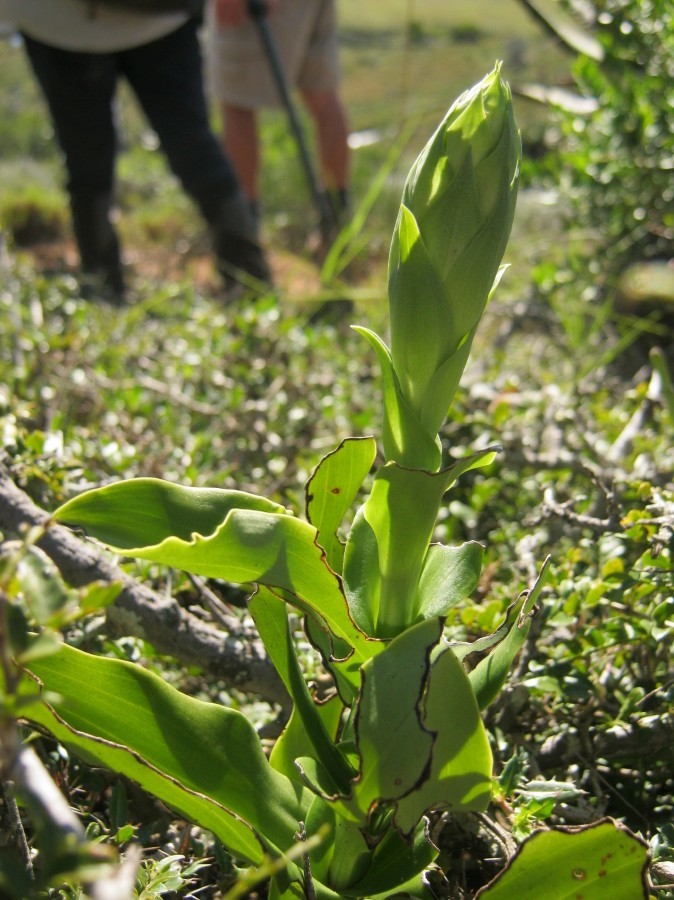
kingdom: Plantae
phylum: Tracheophyta
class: Liliopsida
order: Asparagales
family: Orchidaceae
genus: Disa
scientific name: Disa cornuta
